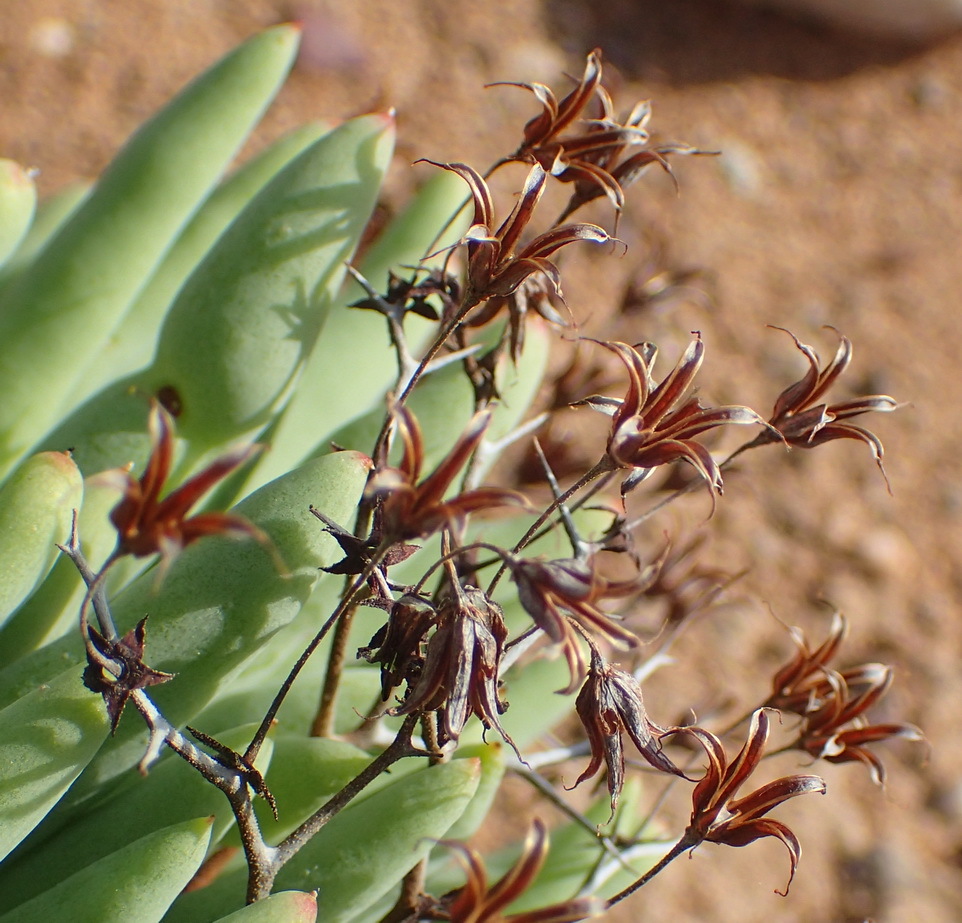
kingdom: Plantae
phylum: Tracheophyta
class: Magnoliopsida
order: Saxifragales
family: Crassulaceae
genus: Tylecodon
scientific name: Tylecodon reticulatus
